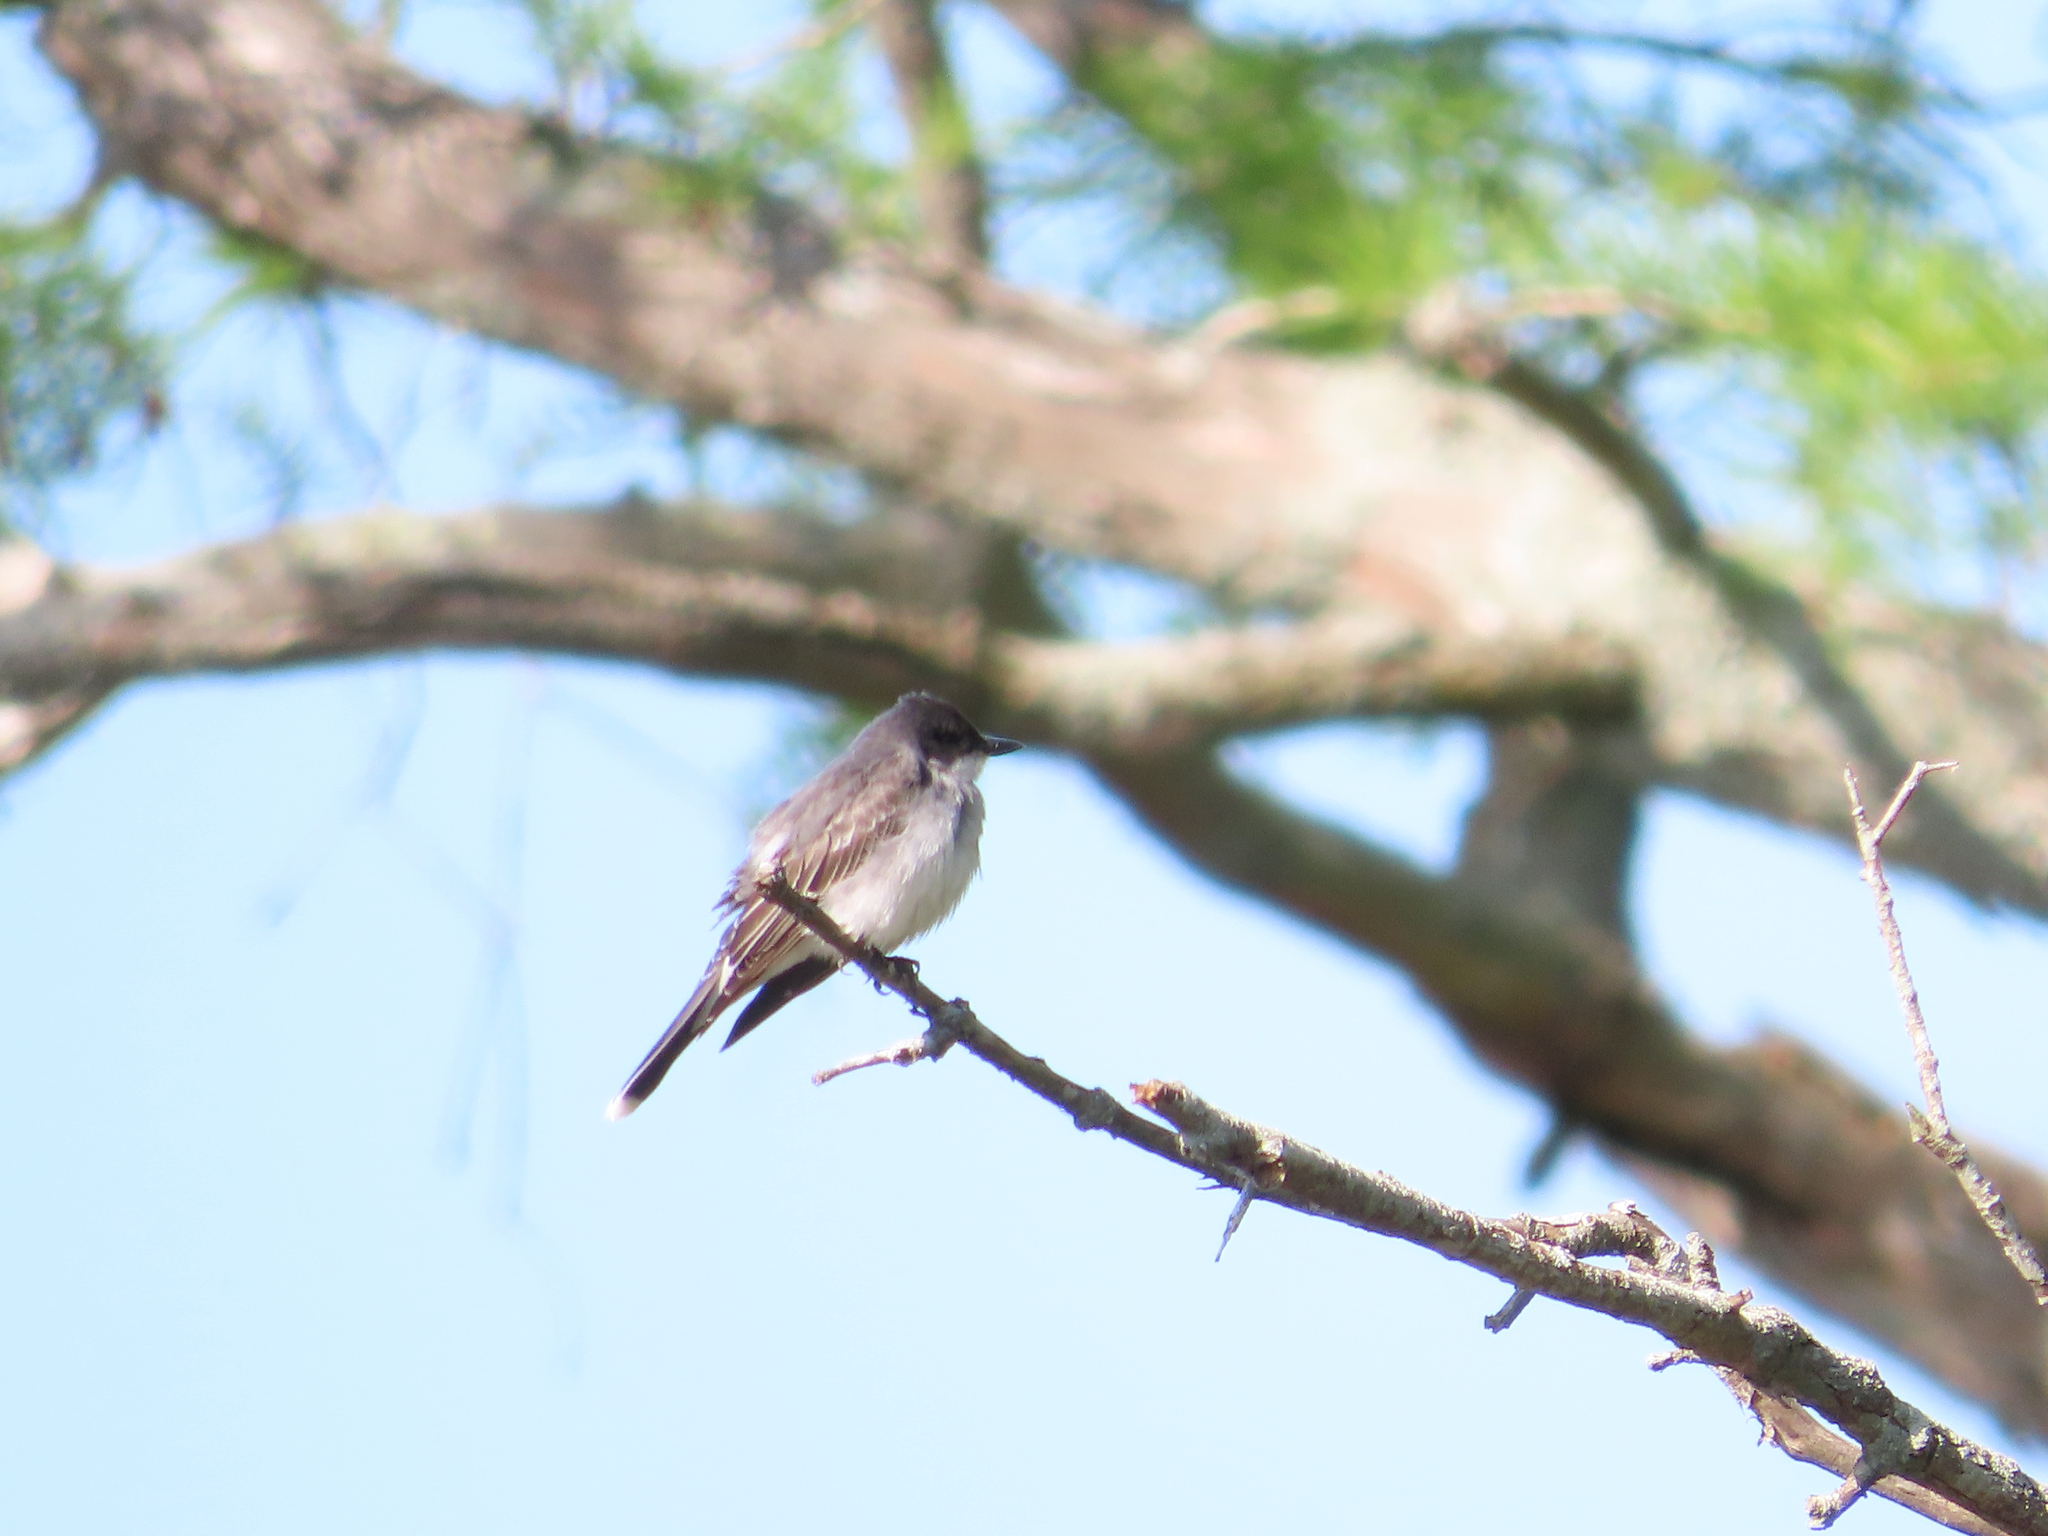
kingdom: Animalia
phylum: Chordata
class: Aves
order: Passeriformes
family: Tyrannidae
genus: Tyrannus
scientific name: Tyrannus tyrannus
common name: Eastern kingbird
